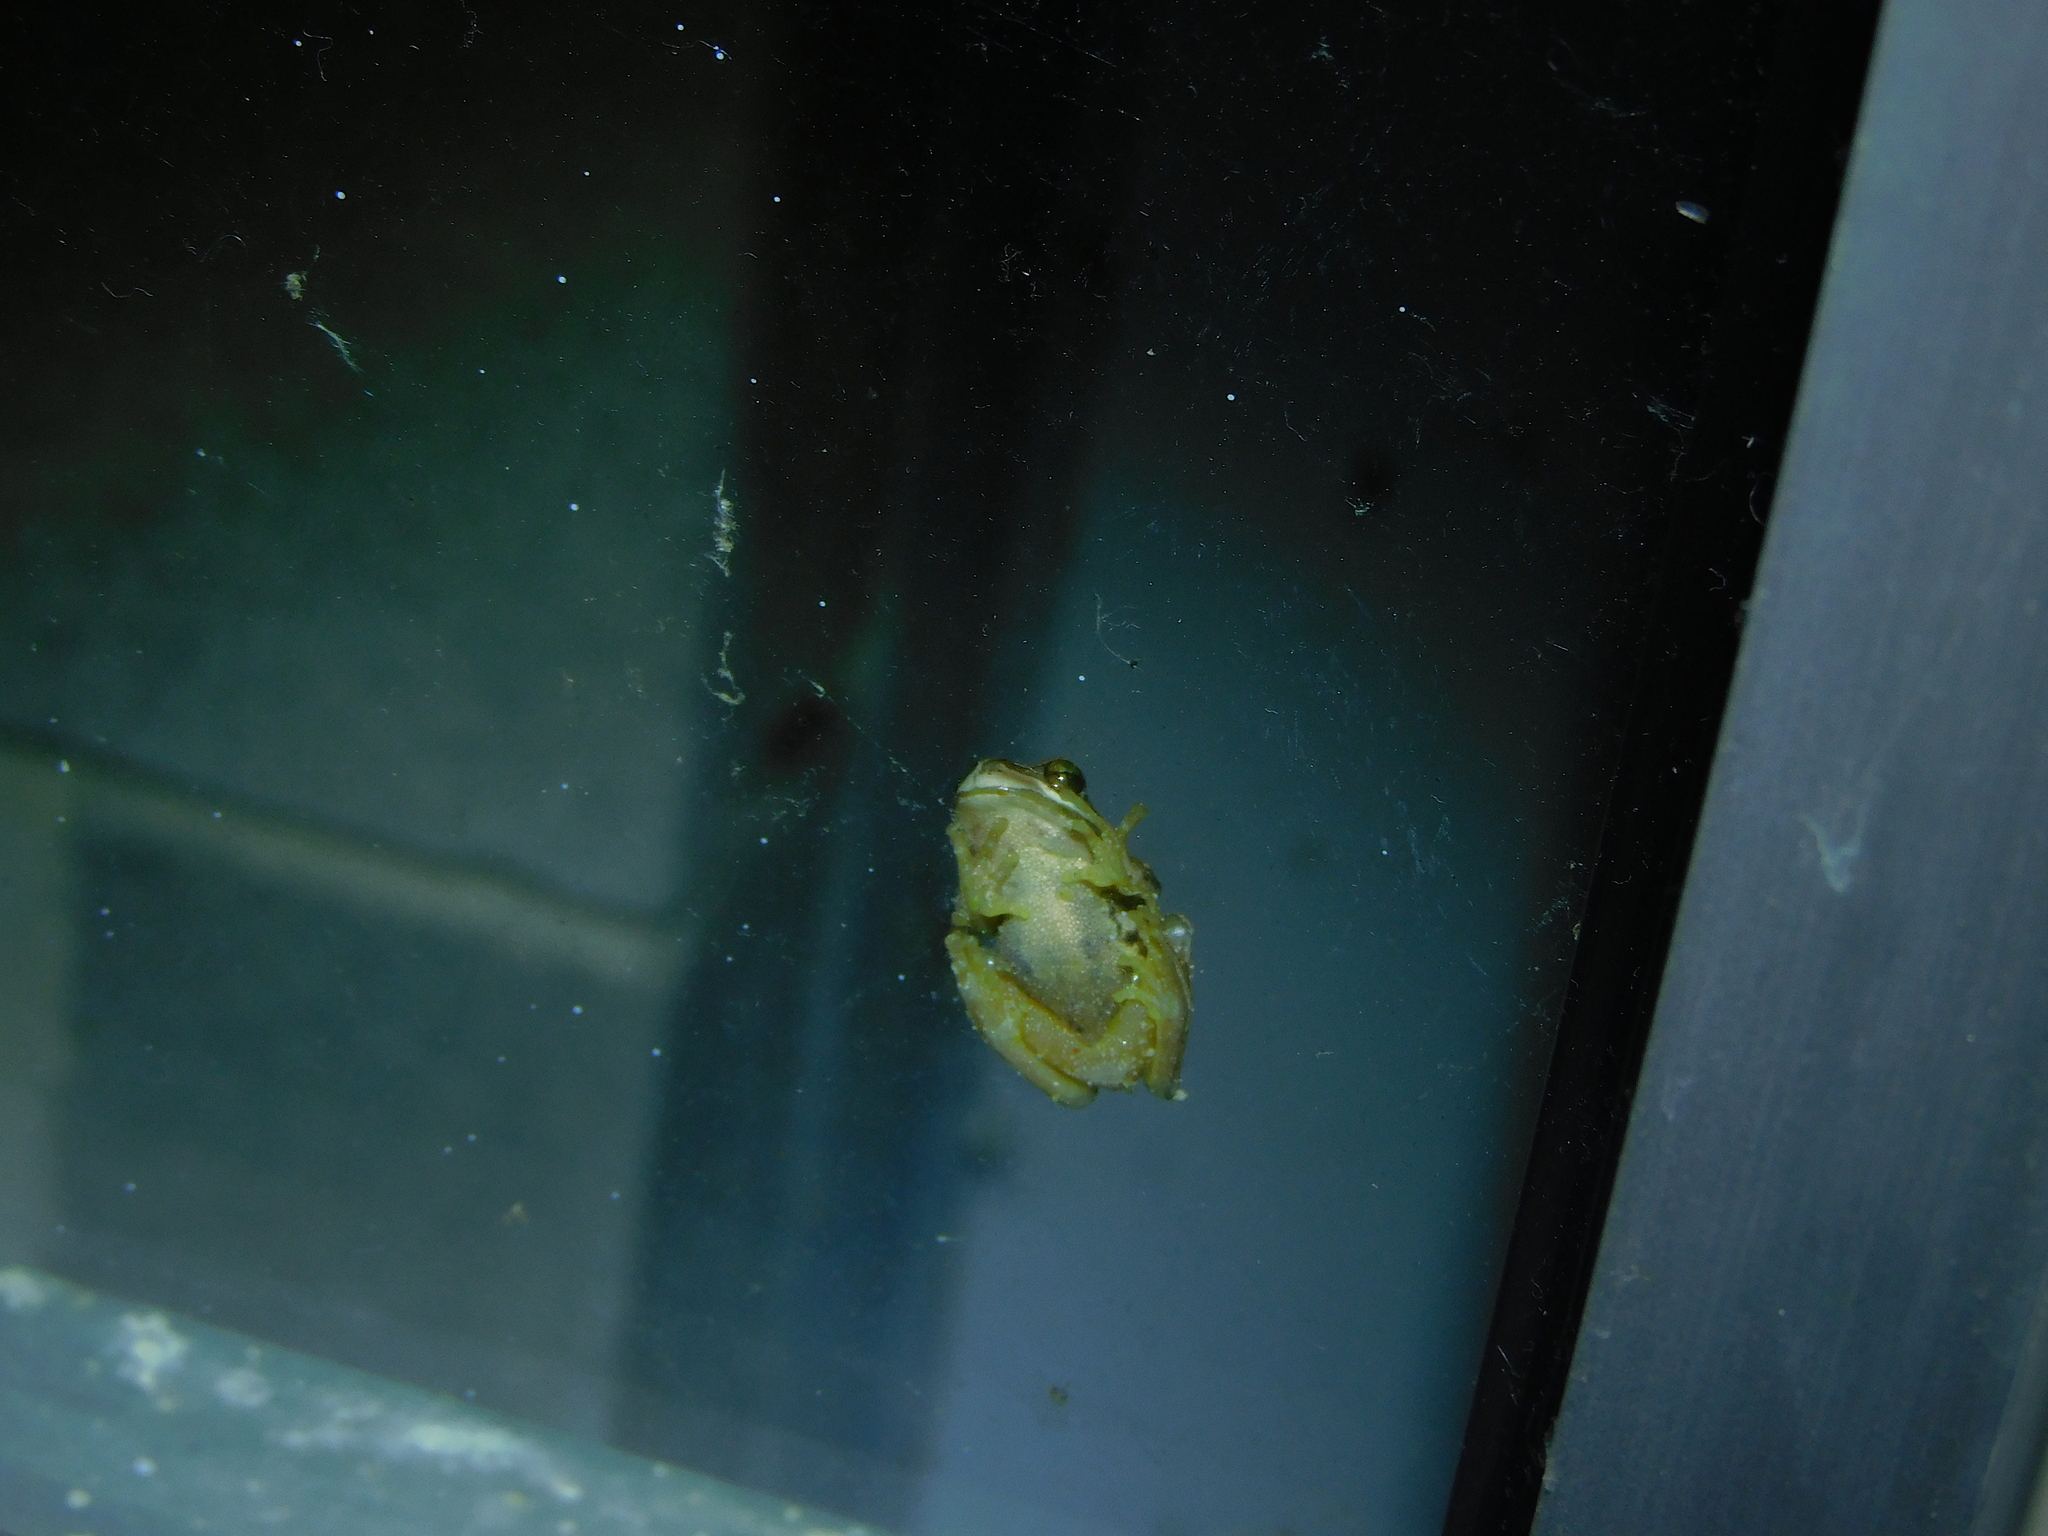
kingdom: Animalia
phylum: Chordata
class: Amphibia
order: Anura
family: Pelodryadidae
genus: Litoria
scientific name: Litoria ewingii
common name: Southern brown tree frog
